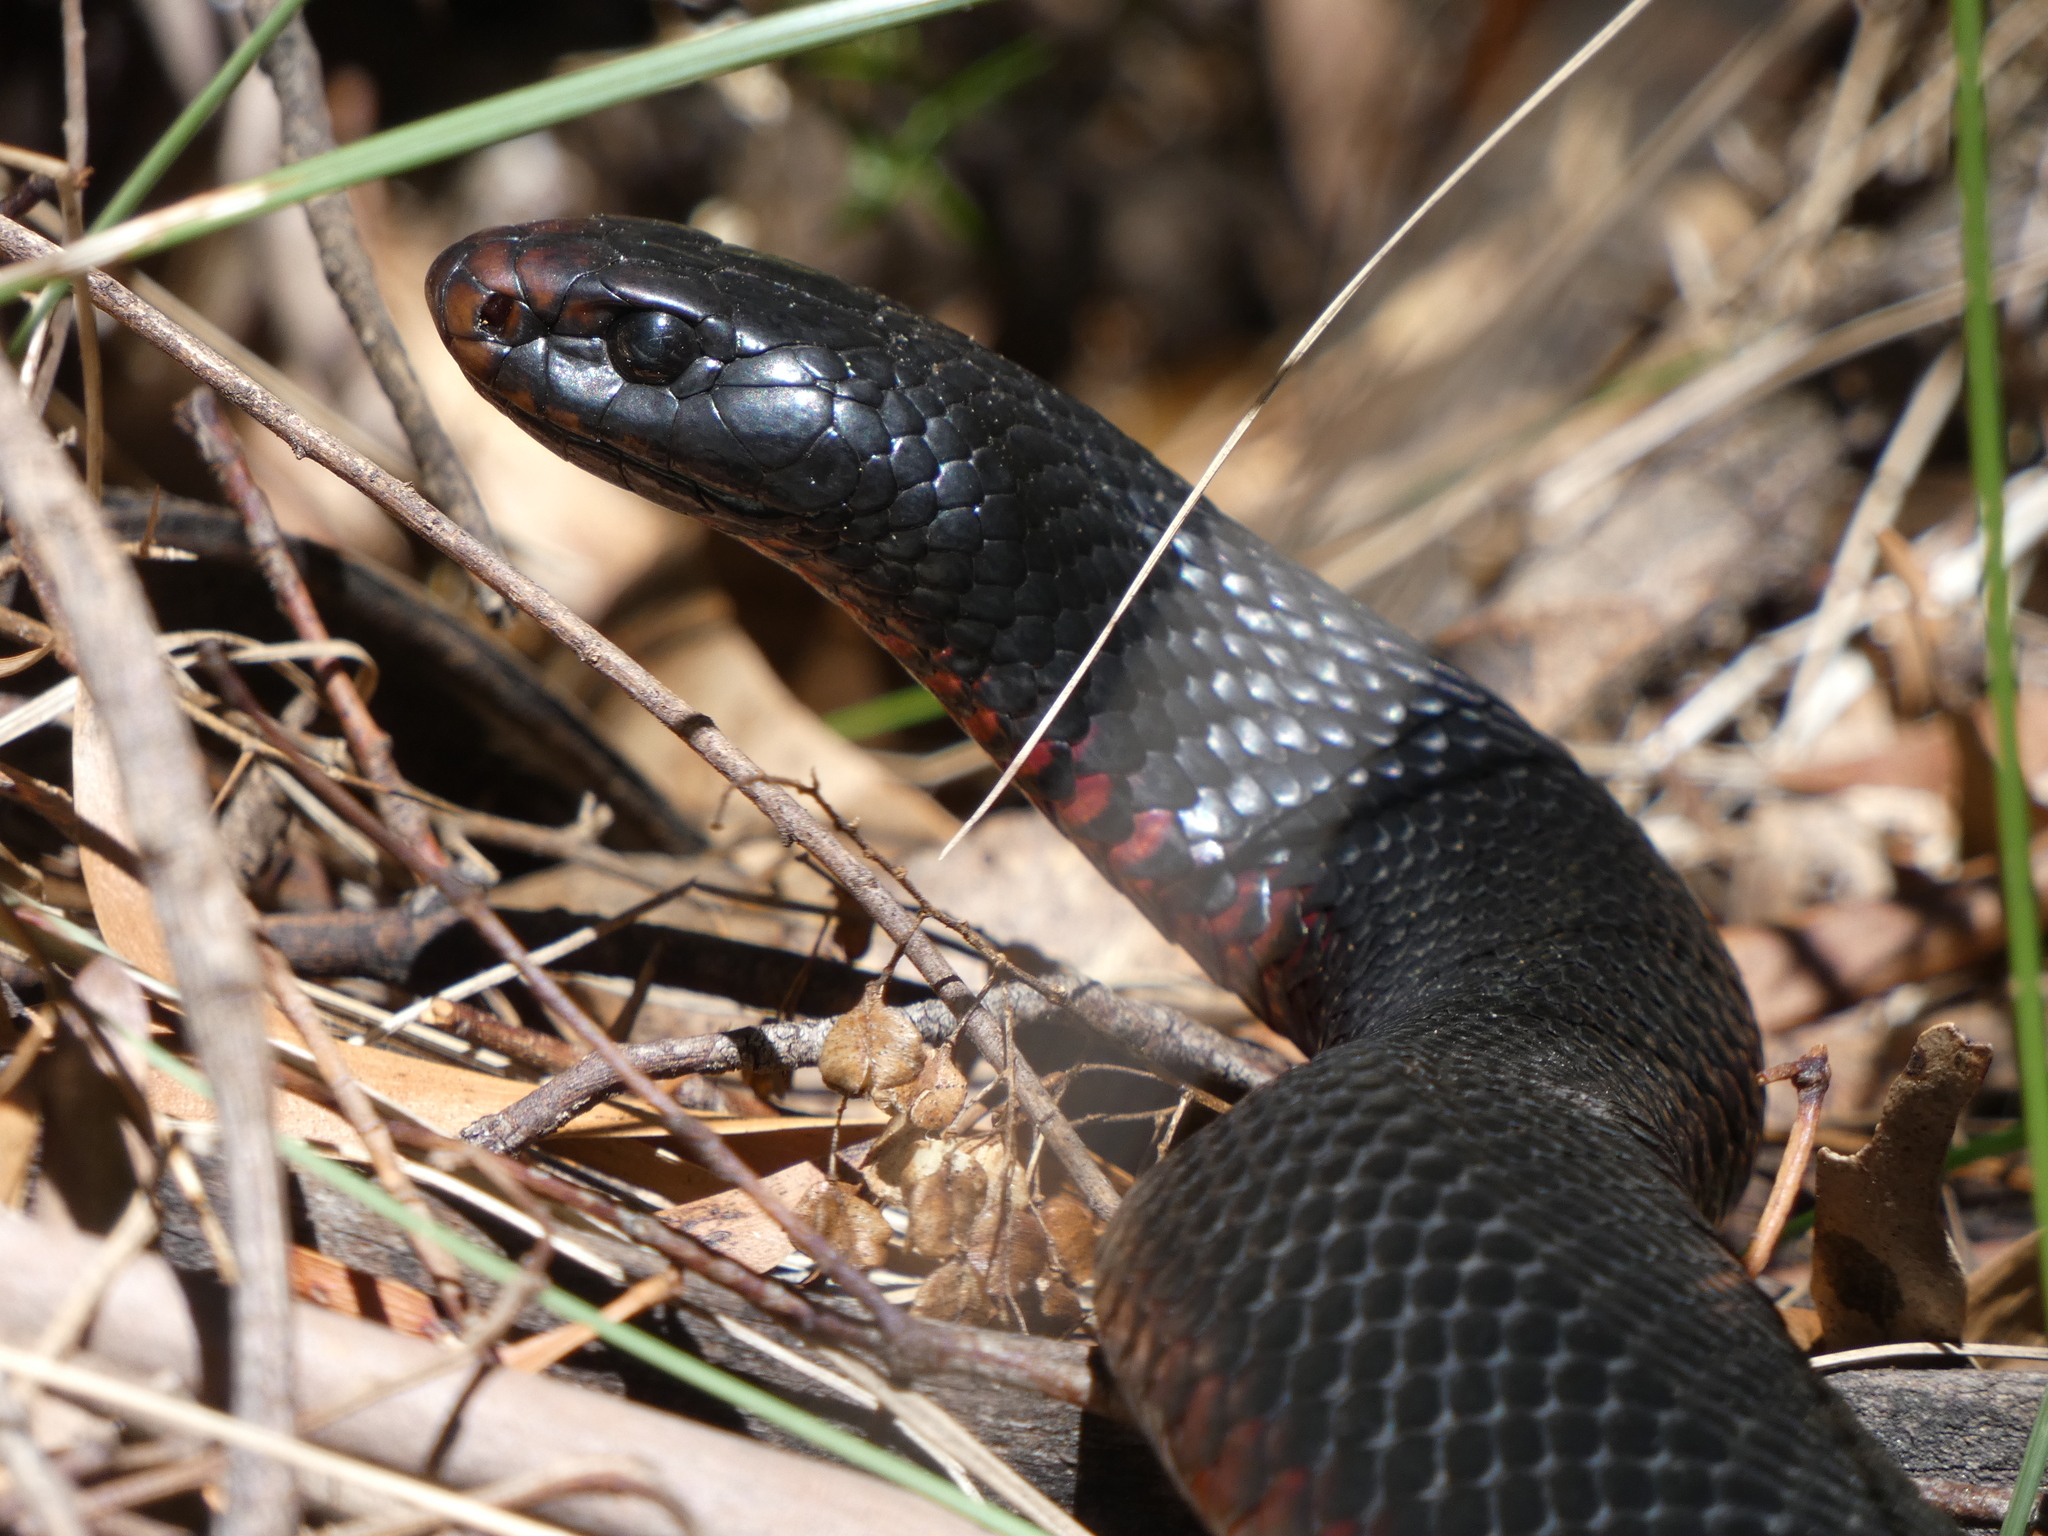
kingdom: Animalia
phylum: Chordata
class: Squamata
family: Elapidae
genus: Pseudechis
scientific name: Pseudechis porphyriacus
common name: Australian black snake
